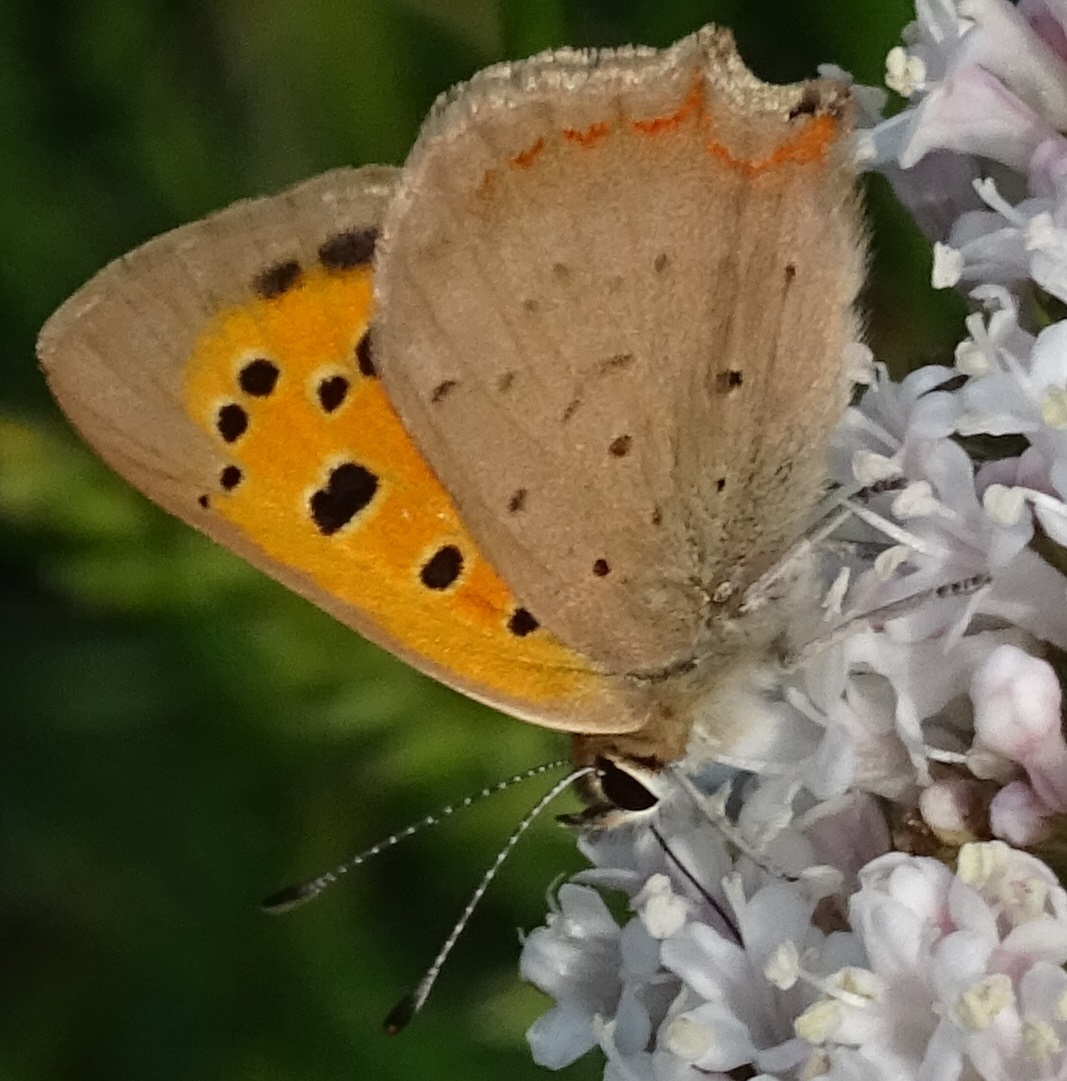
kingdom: Animalia
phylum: Arthropoda
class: Insecta
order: Lepidoptera
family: Lycaenidae
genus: Lycaena
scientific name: Lycaena phlaeas
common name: Small copper
